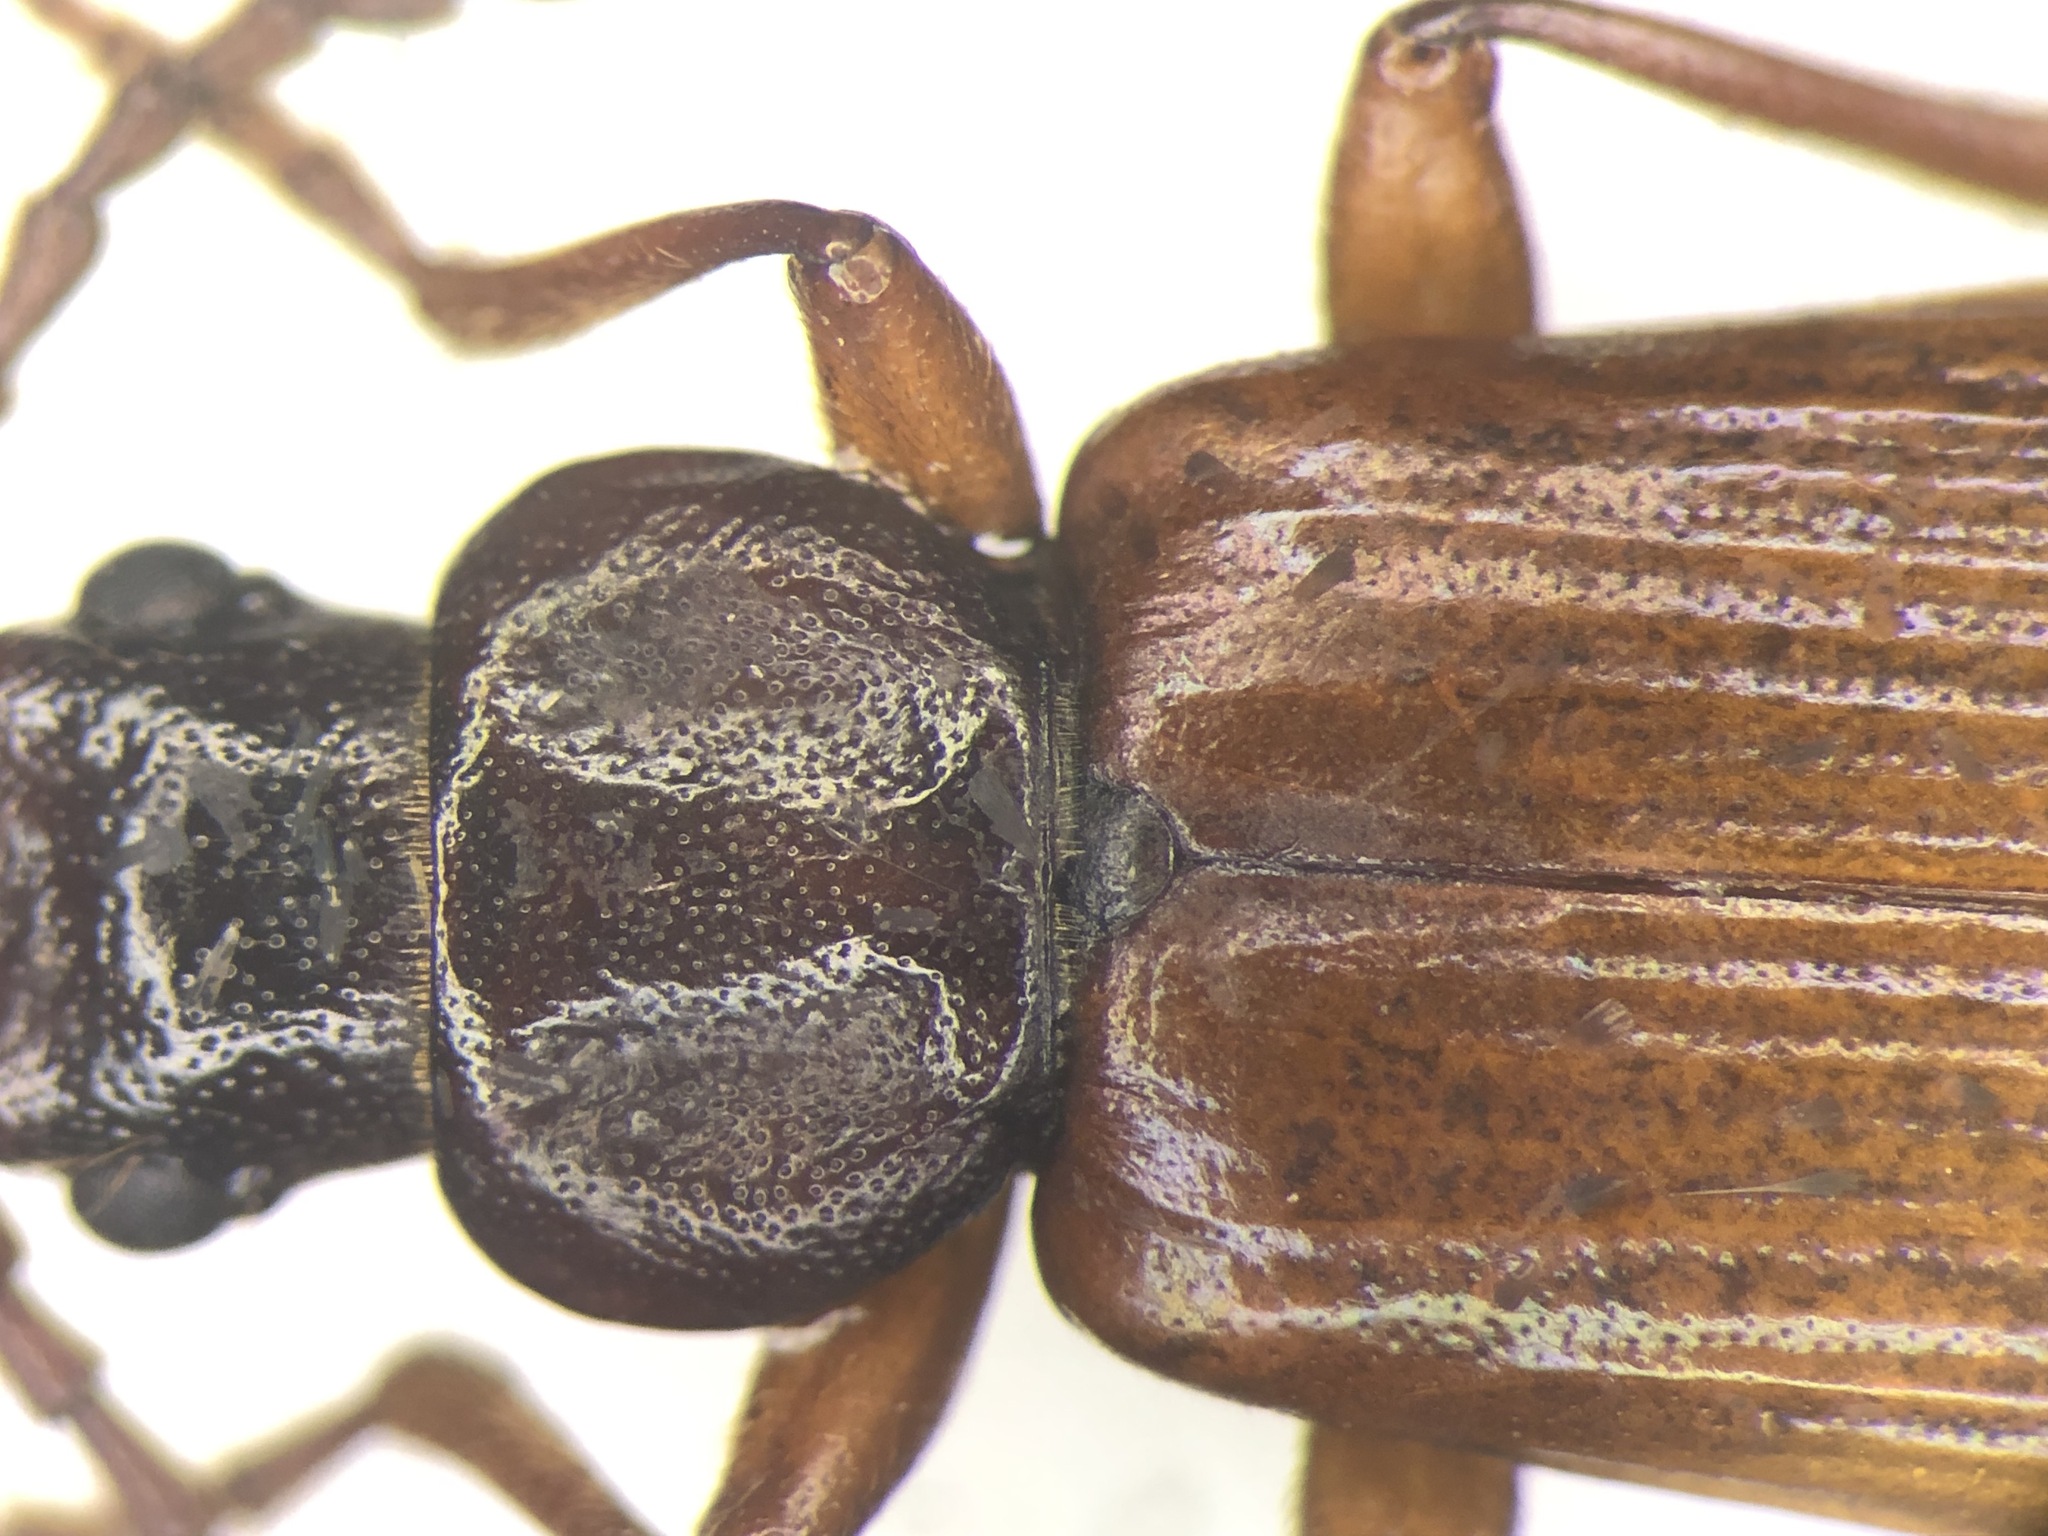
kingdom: Animalia
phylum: Arthropoda
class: Insecta
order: Coleoptera
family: Pythidae
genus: Pytho
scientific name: Pytho americanus
